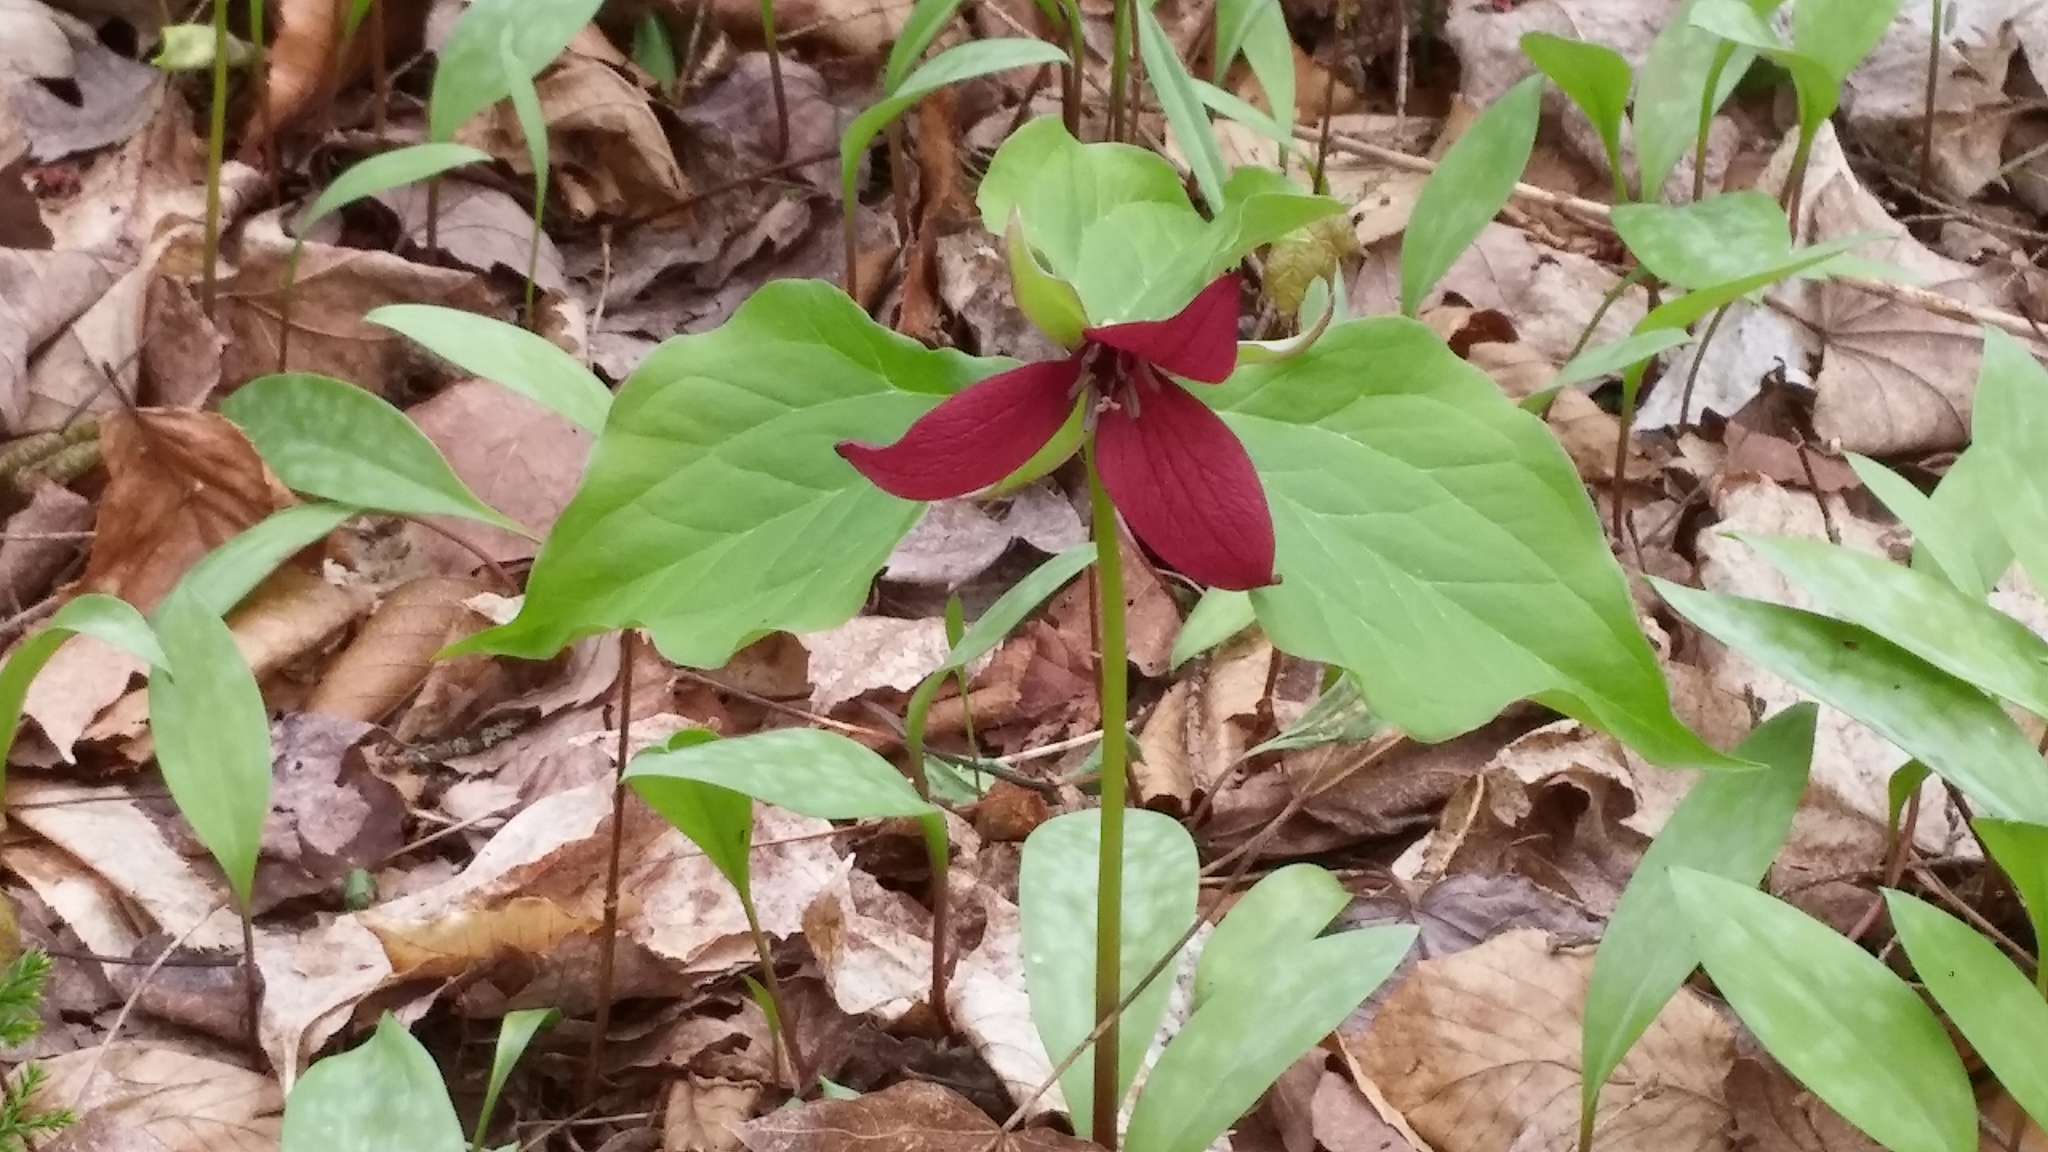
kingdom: Plantae
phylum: Tracheophyta
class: Liliopsida
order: Liliales
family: Melanthiaceae
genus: Trillium
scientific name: Trillium erectum
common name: Purple trillium
